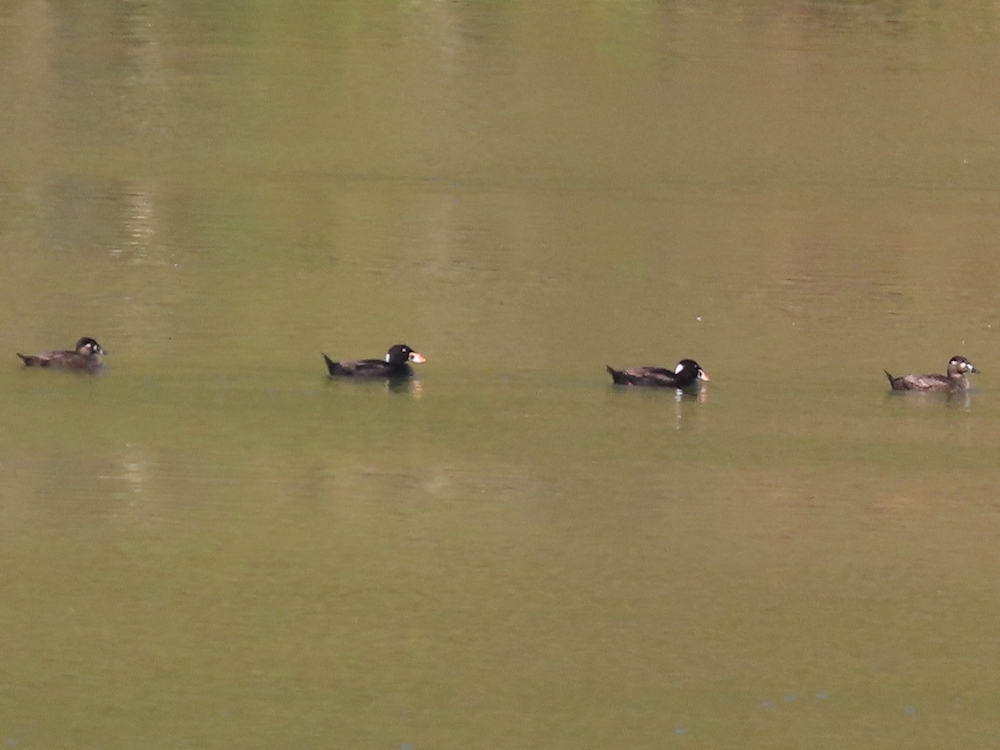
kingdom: Animalia
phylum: Chordata
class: Aves
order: Anseriformes
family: Anatidae
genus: Melanitta
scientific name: Melanitta perspicillata
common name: Surf scoter
